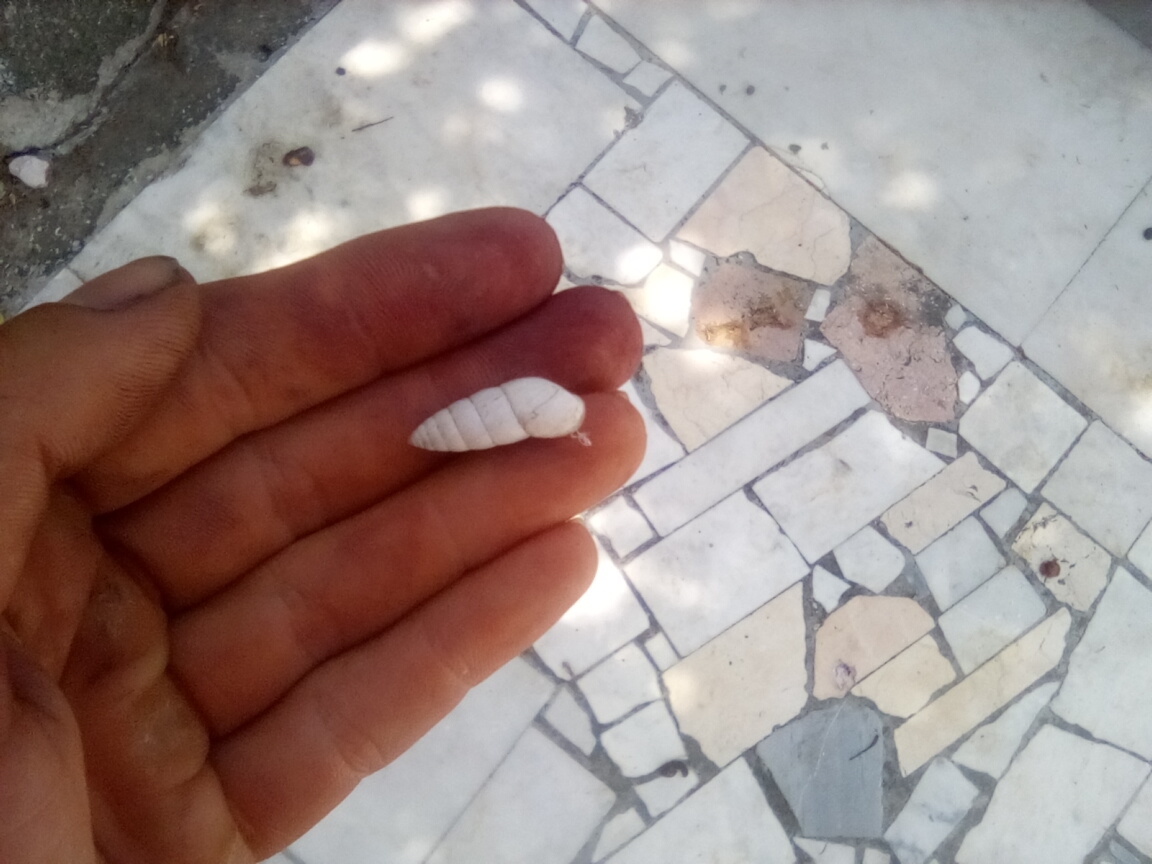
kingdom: Animalia
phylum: Mollusca
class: Gastropoda
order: Stylommatophora
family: Enidae
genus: Brephulopsis
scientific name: Brephulopsis cylindrica
